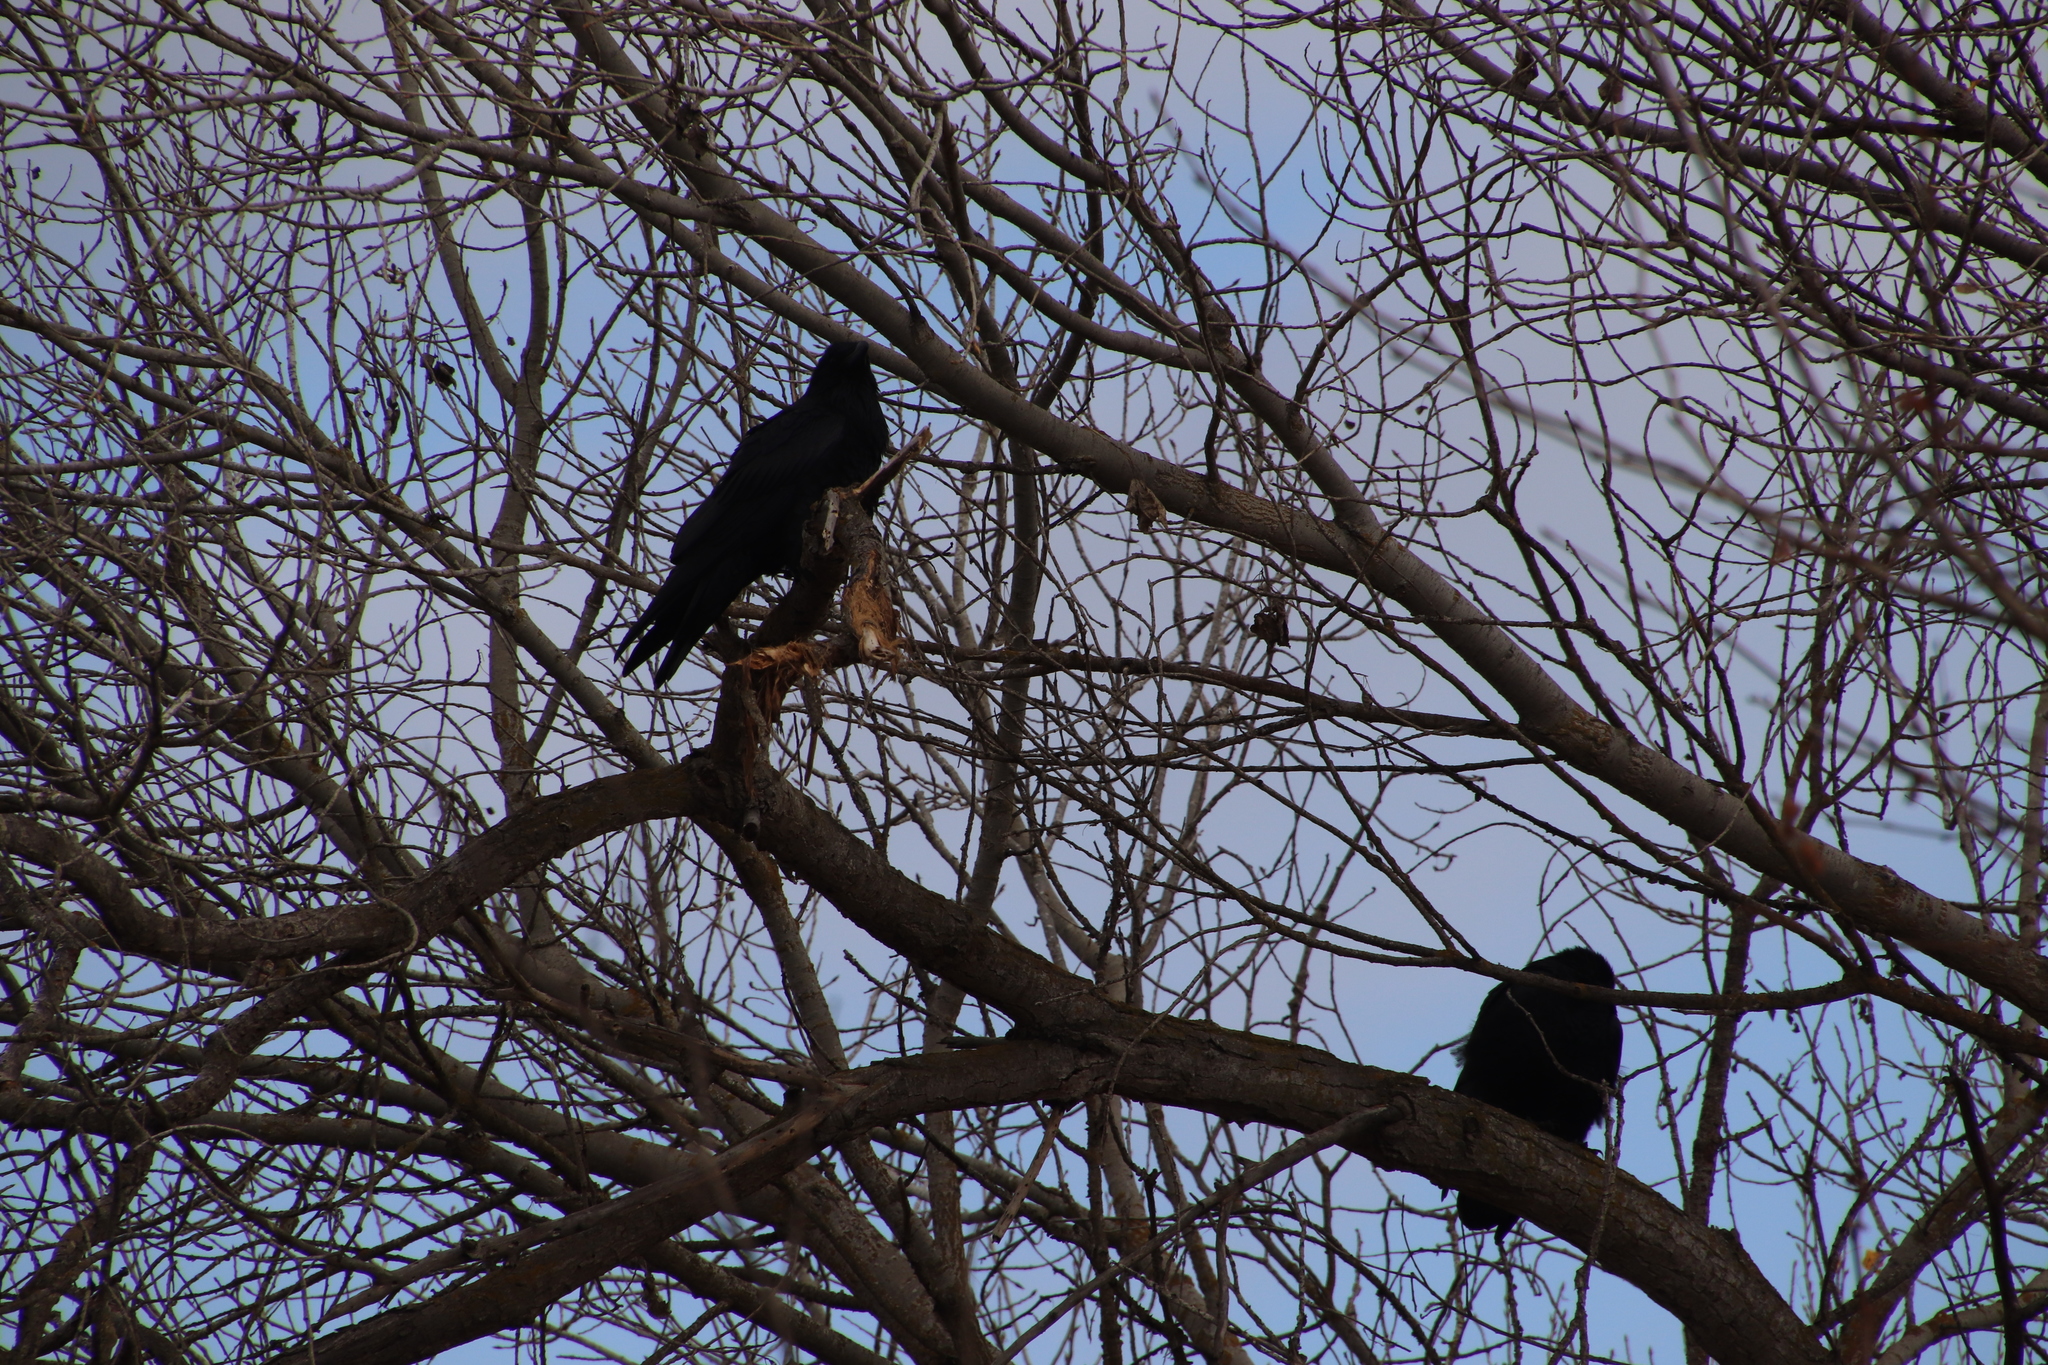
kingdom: Animalia
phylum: Chordata
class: Aves
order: Passeriformes
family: Corvidae
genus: Corvus
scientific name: Corvus corax
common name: Common raven
